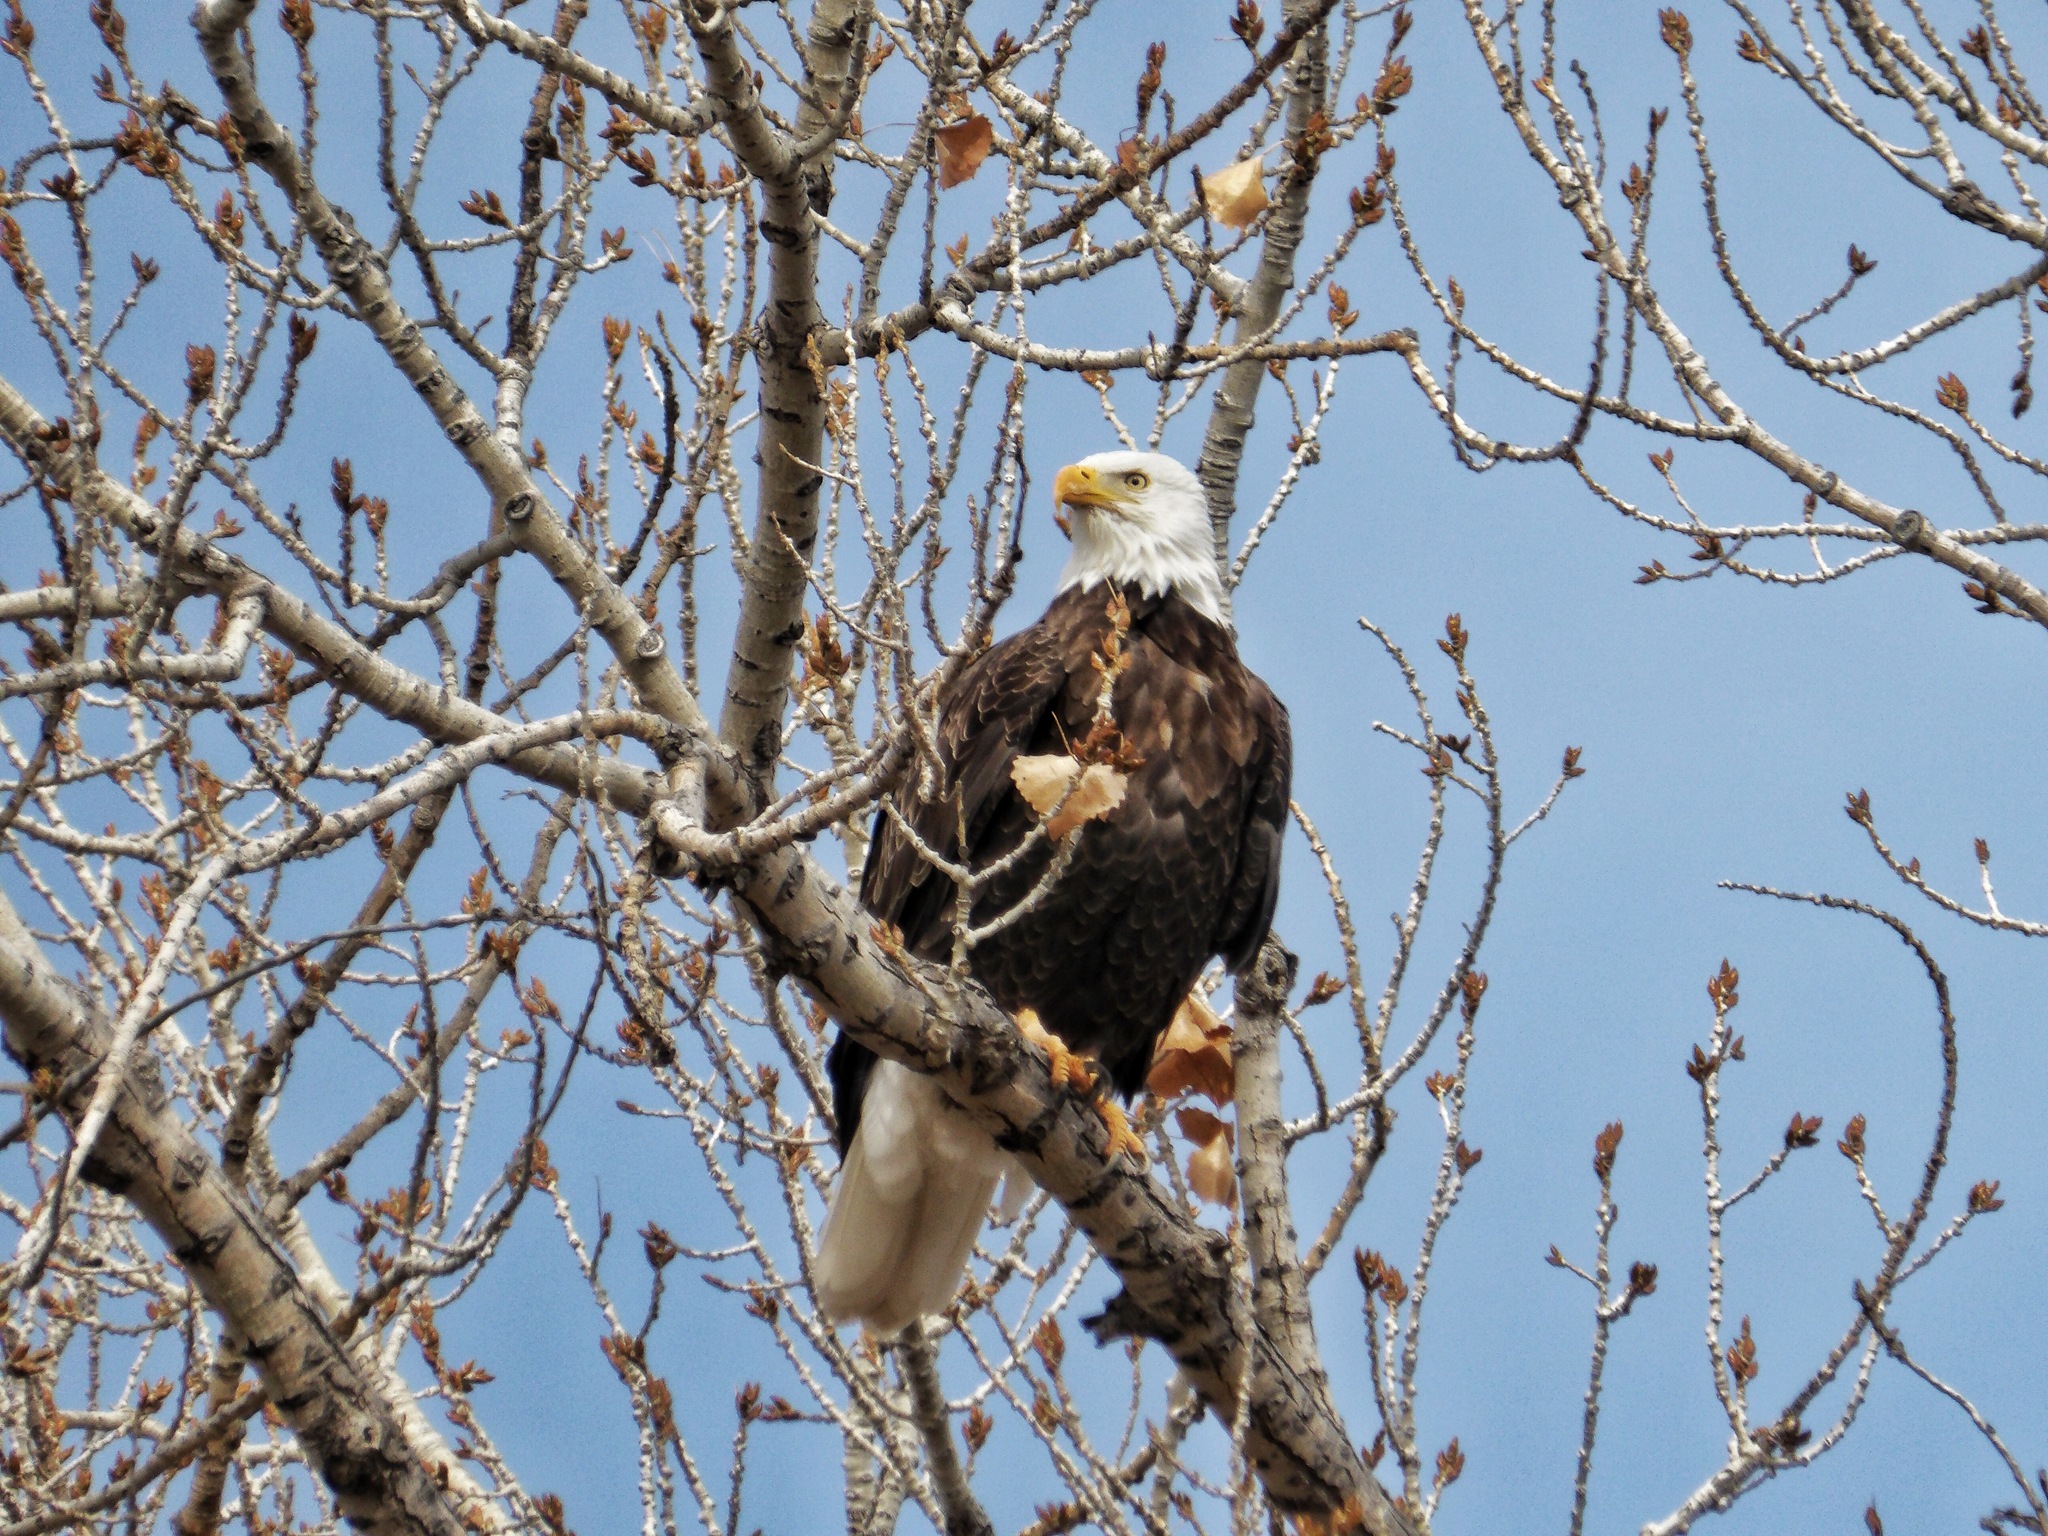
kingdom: Animalia
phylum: Chordata
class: Aves
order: Accipitriformes
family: Accipitridae
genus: Haliaeetus
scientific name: Haliaeetus leucocephalus
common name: Bald eagle
